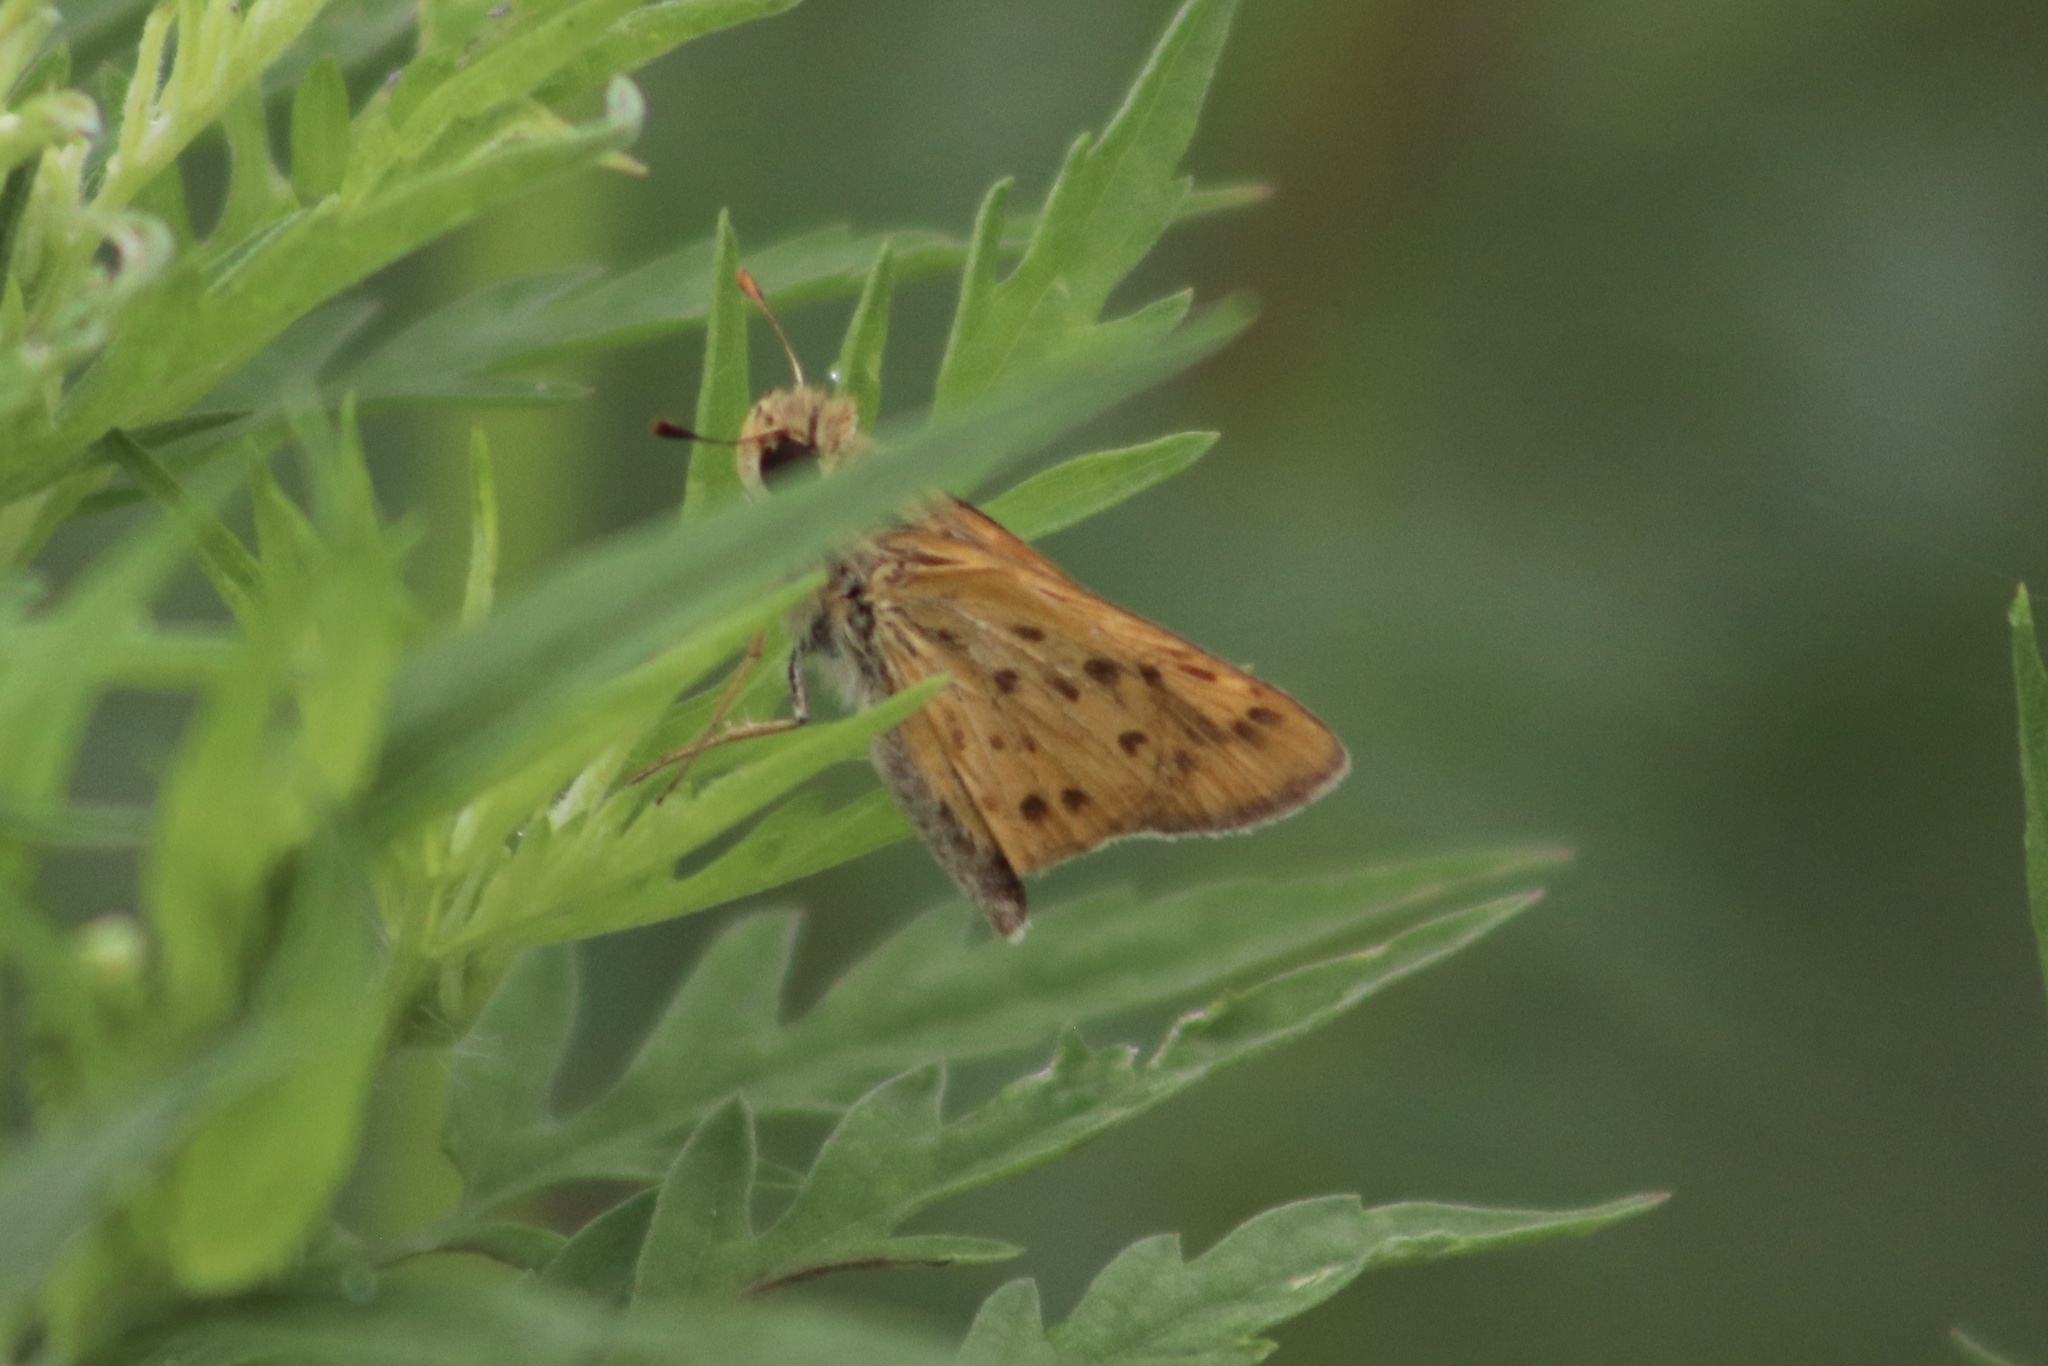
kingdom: Animalia
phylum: Arthropoda
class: Insecta
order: Lepidoptera
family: Hesperiidae
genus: Hylephila
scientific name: Hylephila phyleus
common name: Fiery skipper
